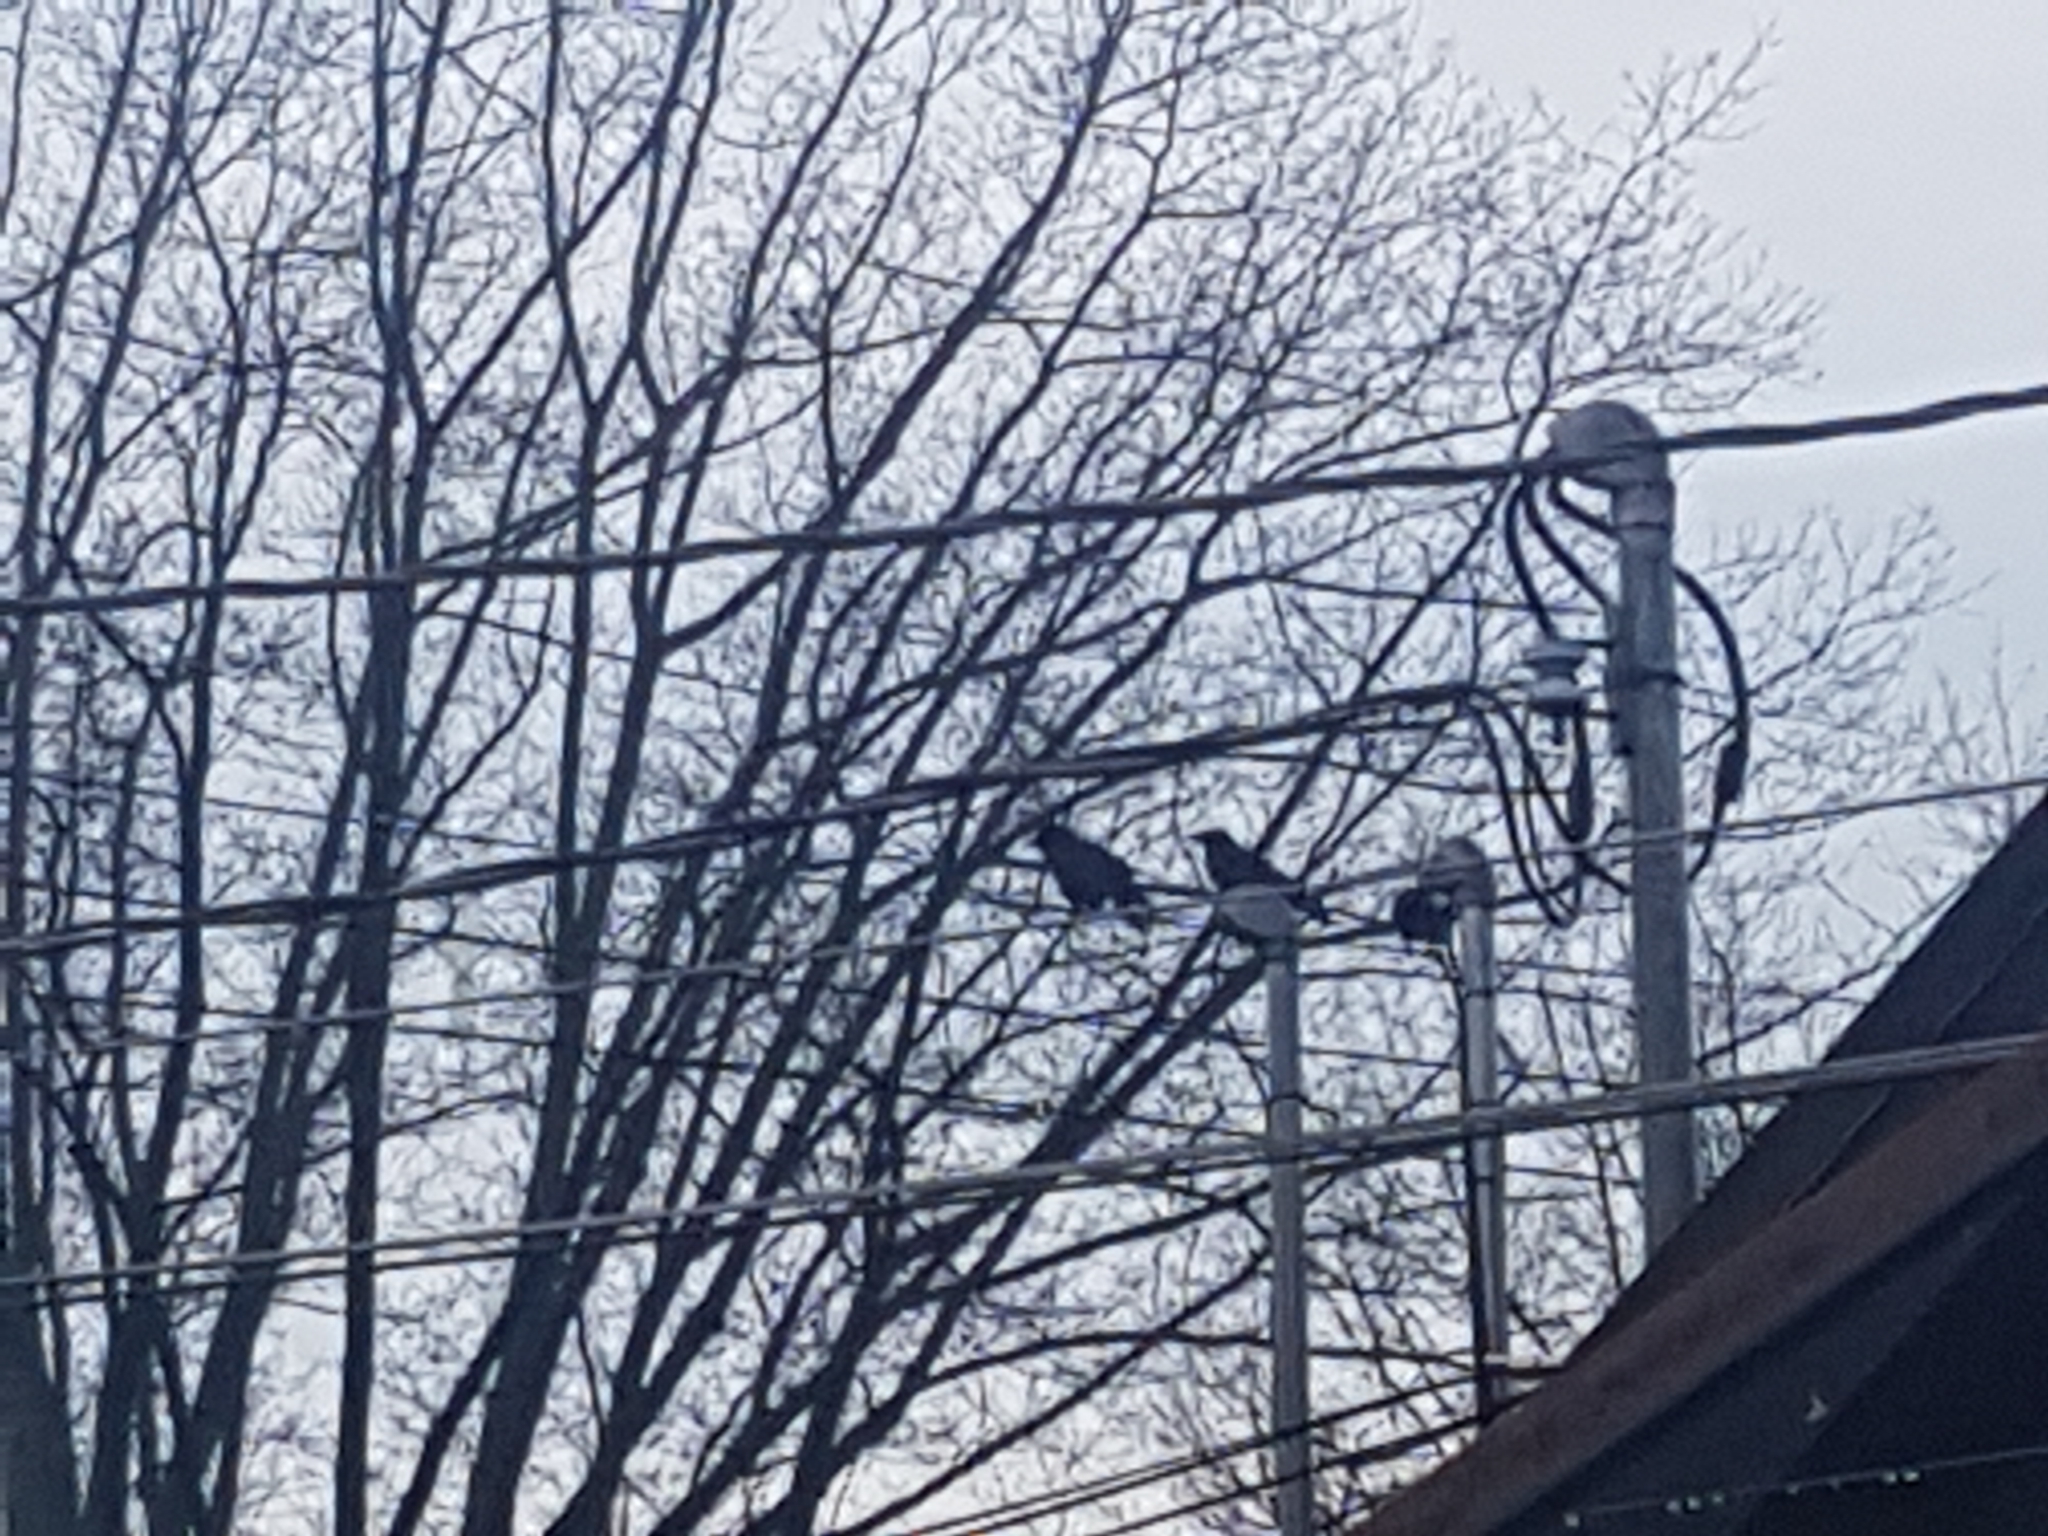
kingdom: Animalia
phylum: Chordata
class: Aves
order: Passeriformes
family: Corvidae
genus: Corvus
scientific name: Corvus brachyrhynchos
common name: American crow
